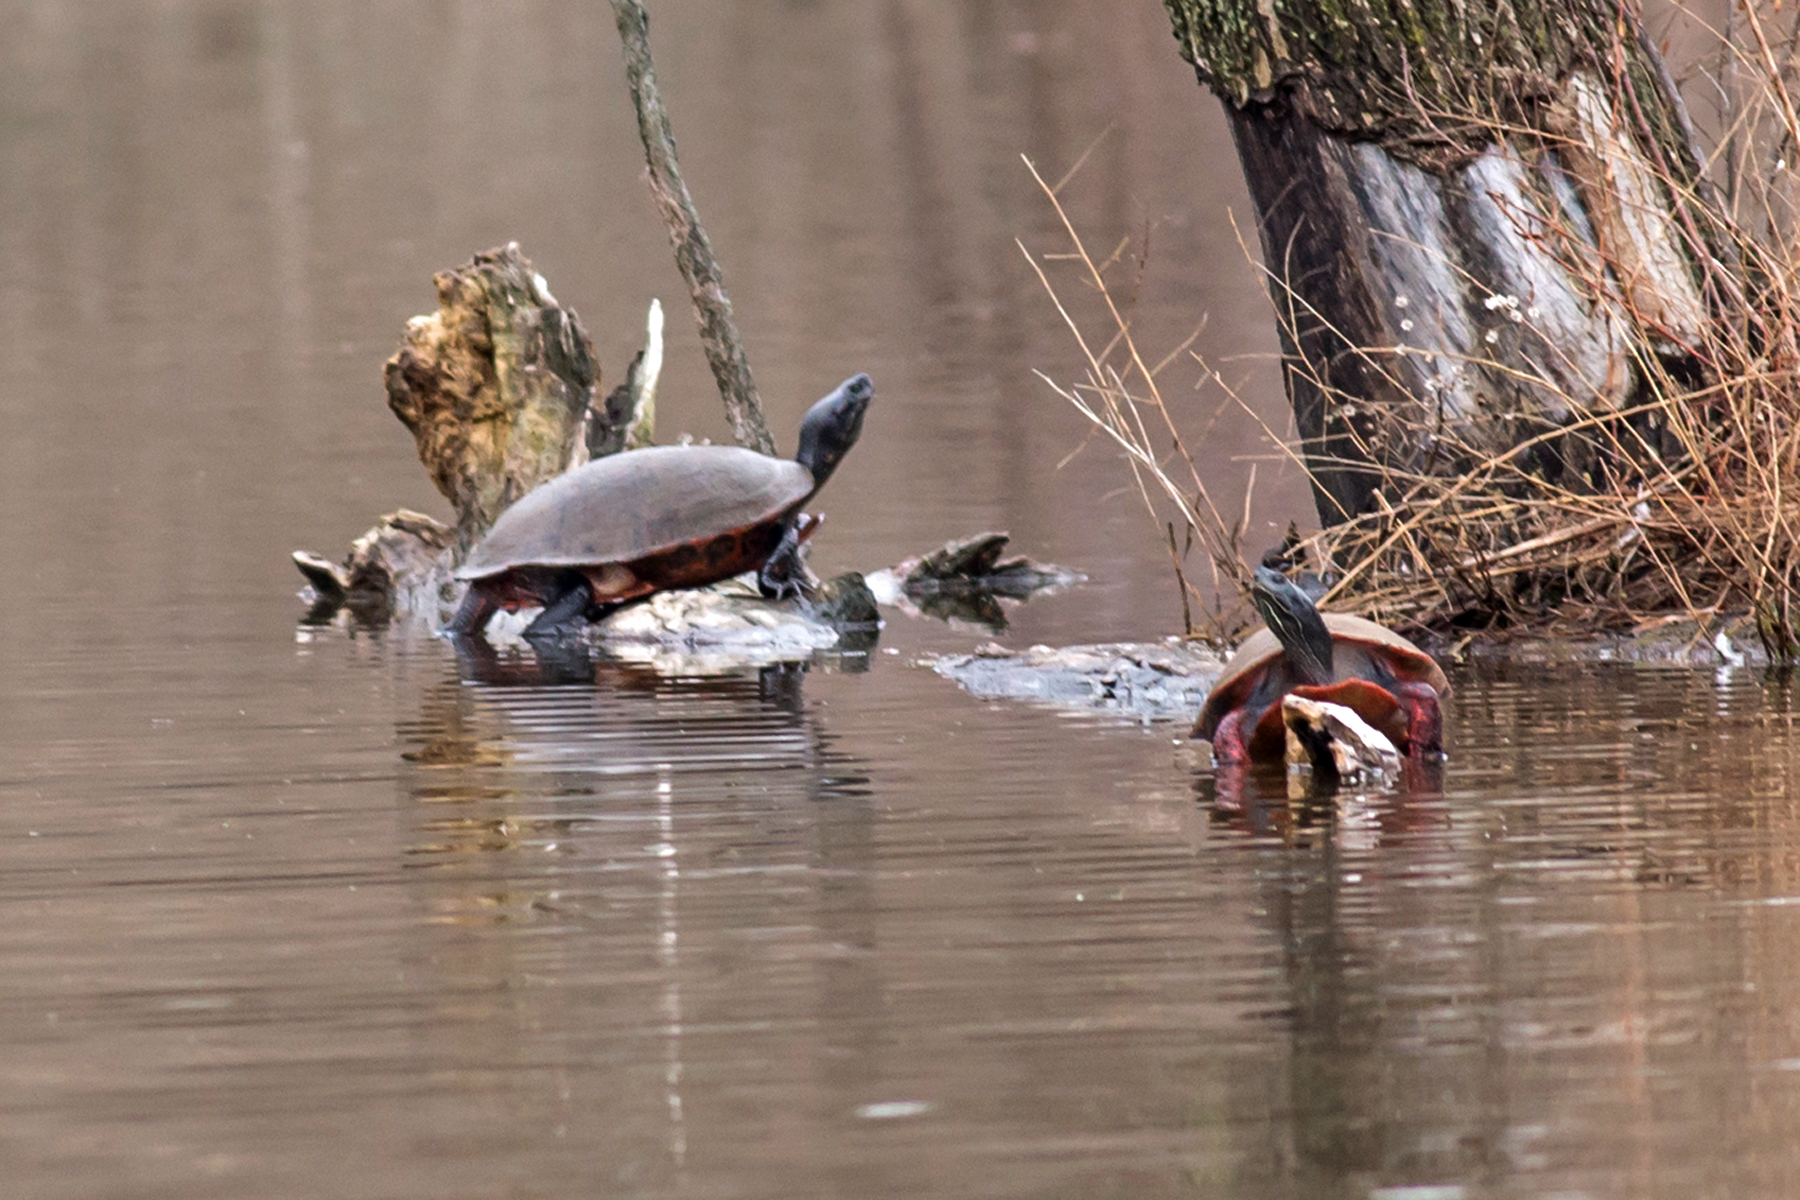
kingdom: Animalia
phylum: Chordata
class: Testudines
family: Emydidae
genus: Pseudemys
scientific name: Pseudemys rubriventris
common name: American red-bellied turtle
